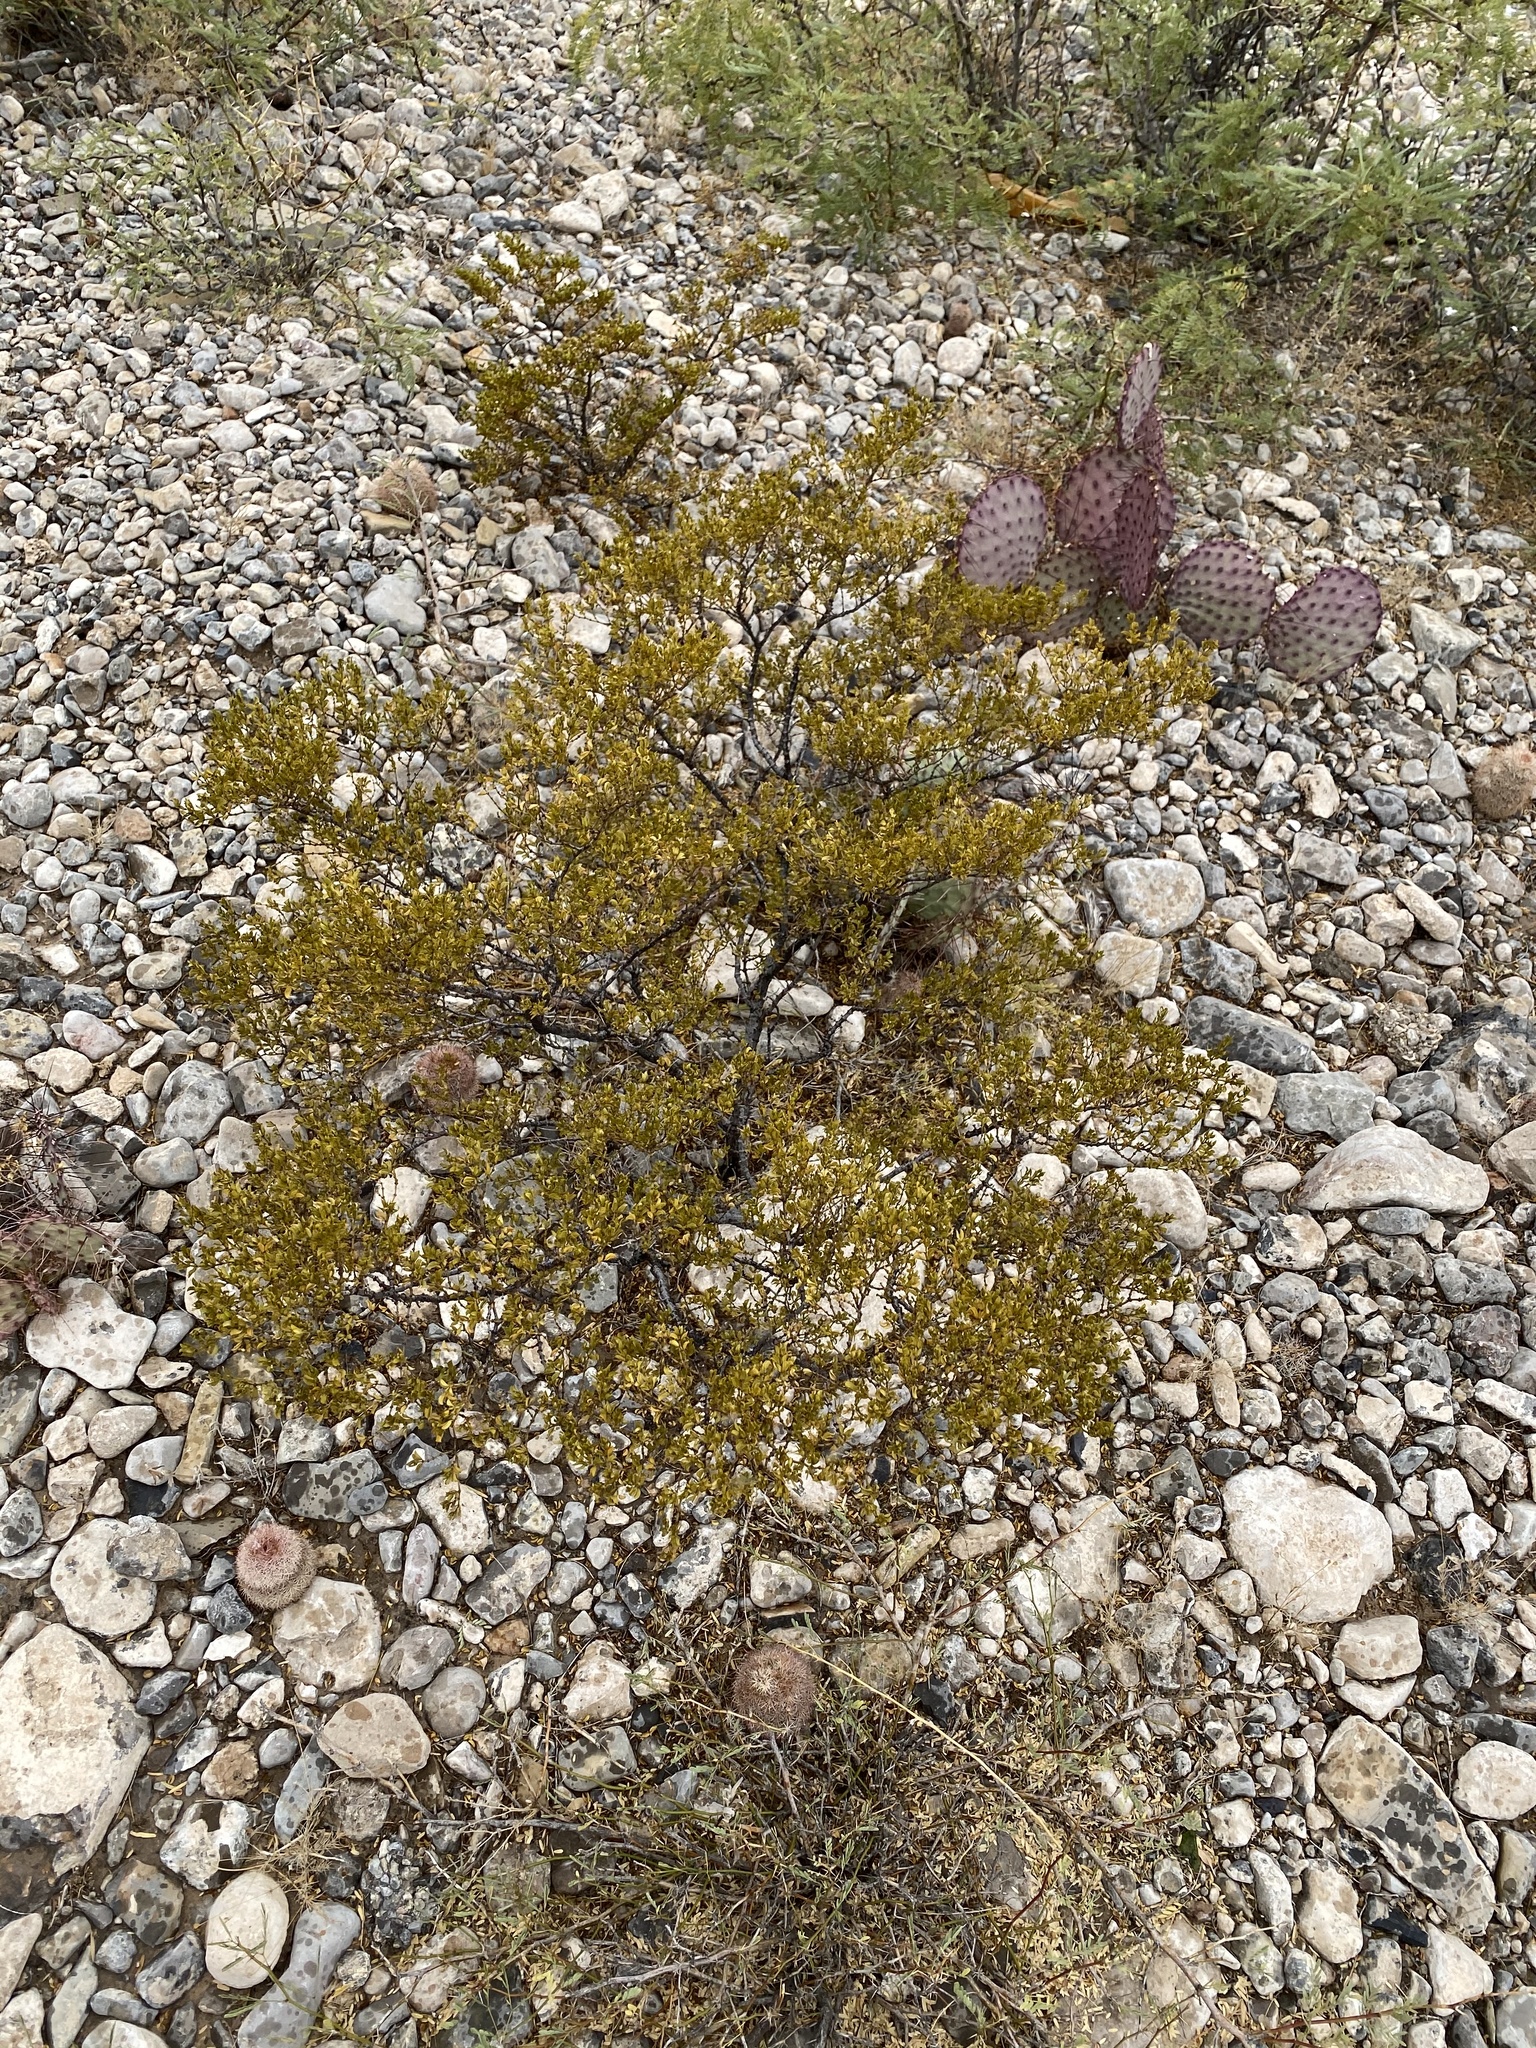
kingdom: Plantae
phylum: Tracheophyta
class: Magnoliopsida
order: Zygophyllales
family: Zygophyllaceae
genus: Larrea
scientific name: Larrea tridentata
